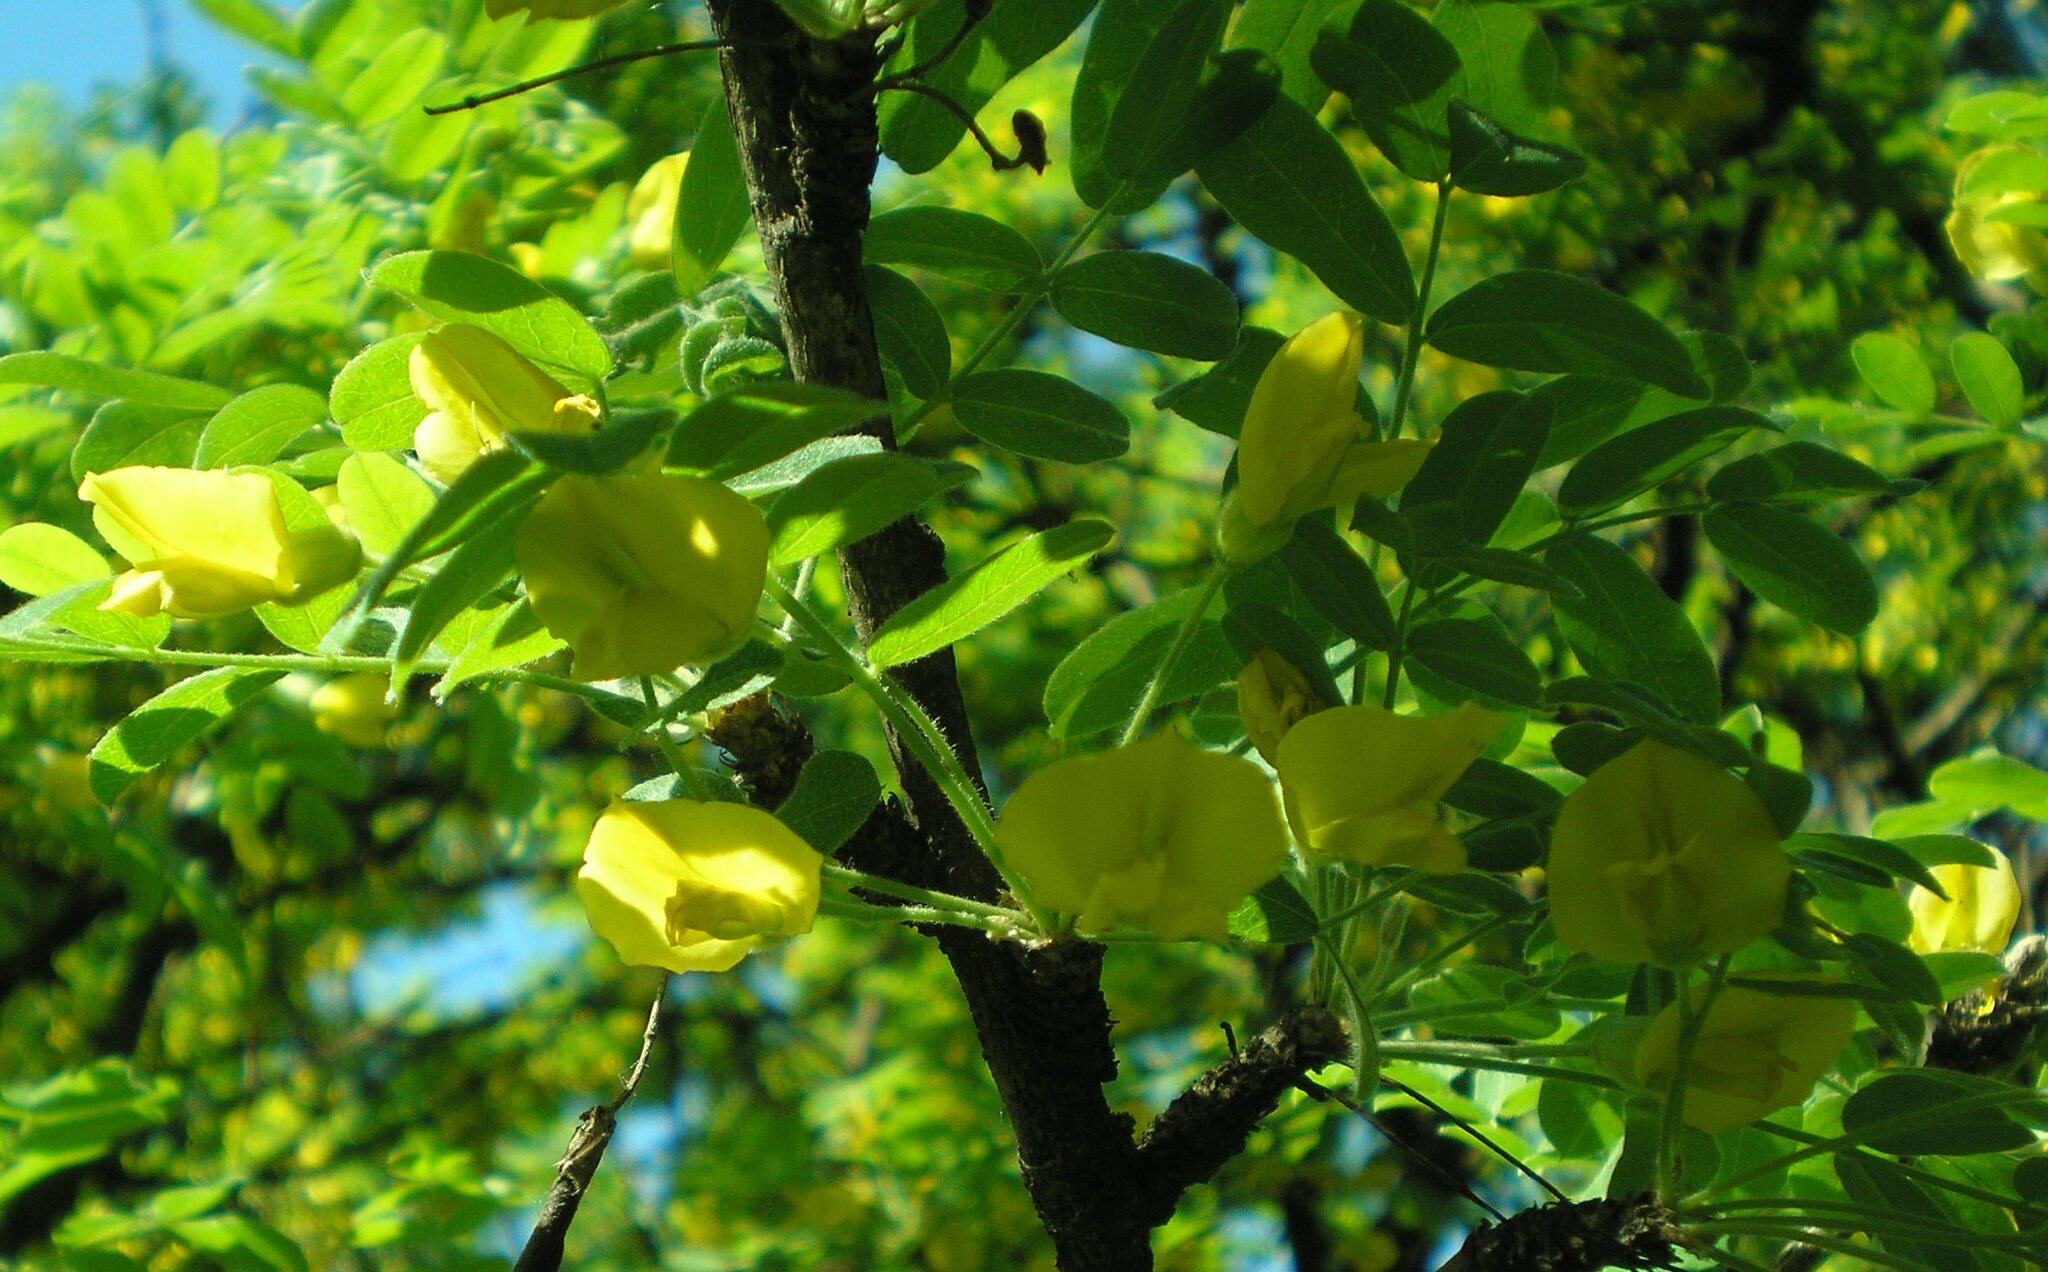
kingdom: Plantae
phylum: Tracheophyta
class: Magnoliopsida
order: Fabales
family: Fabaceae
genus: Caragana
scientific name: Caragana arborescens
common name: Siberian peashrub
